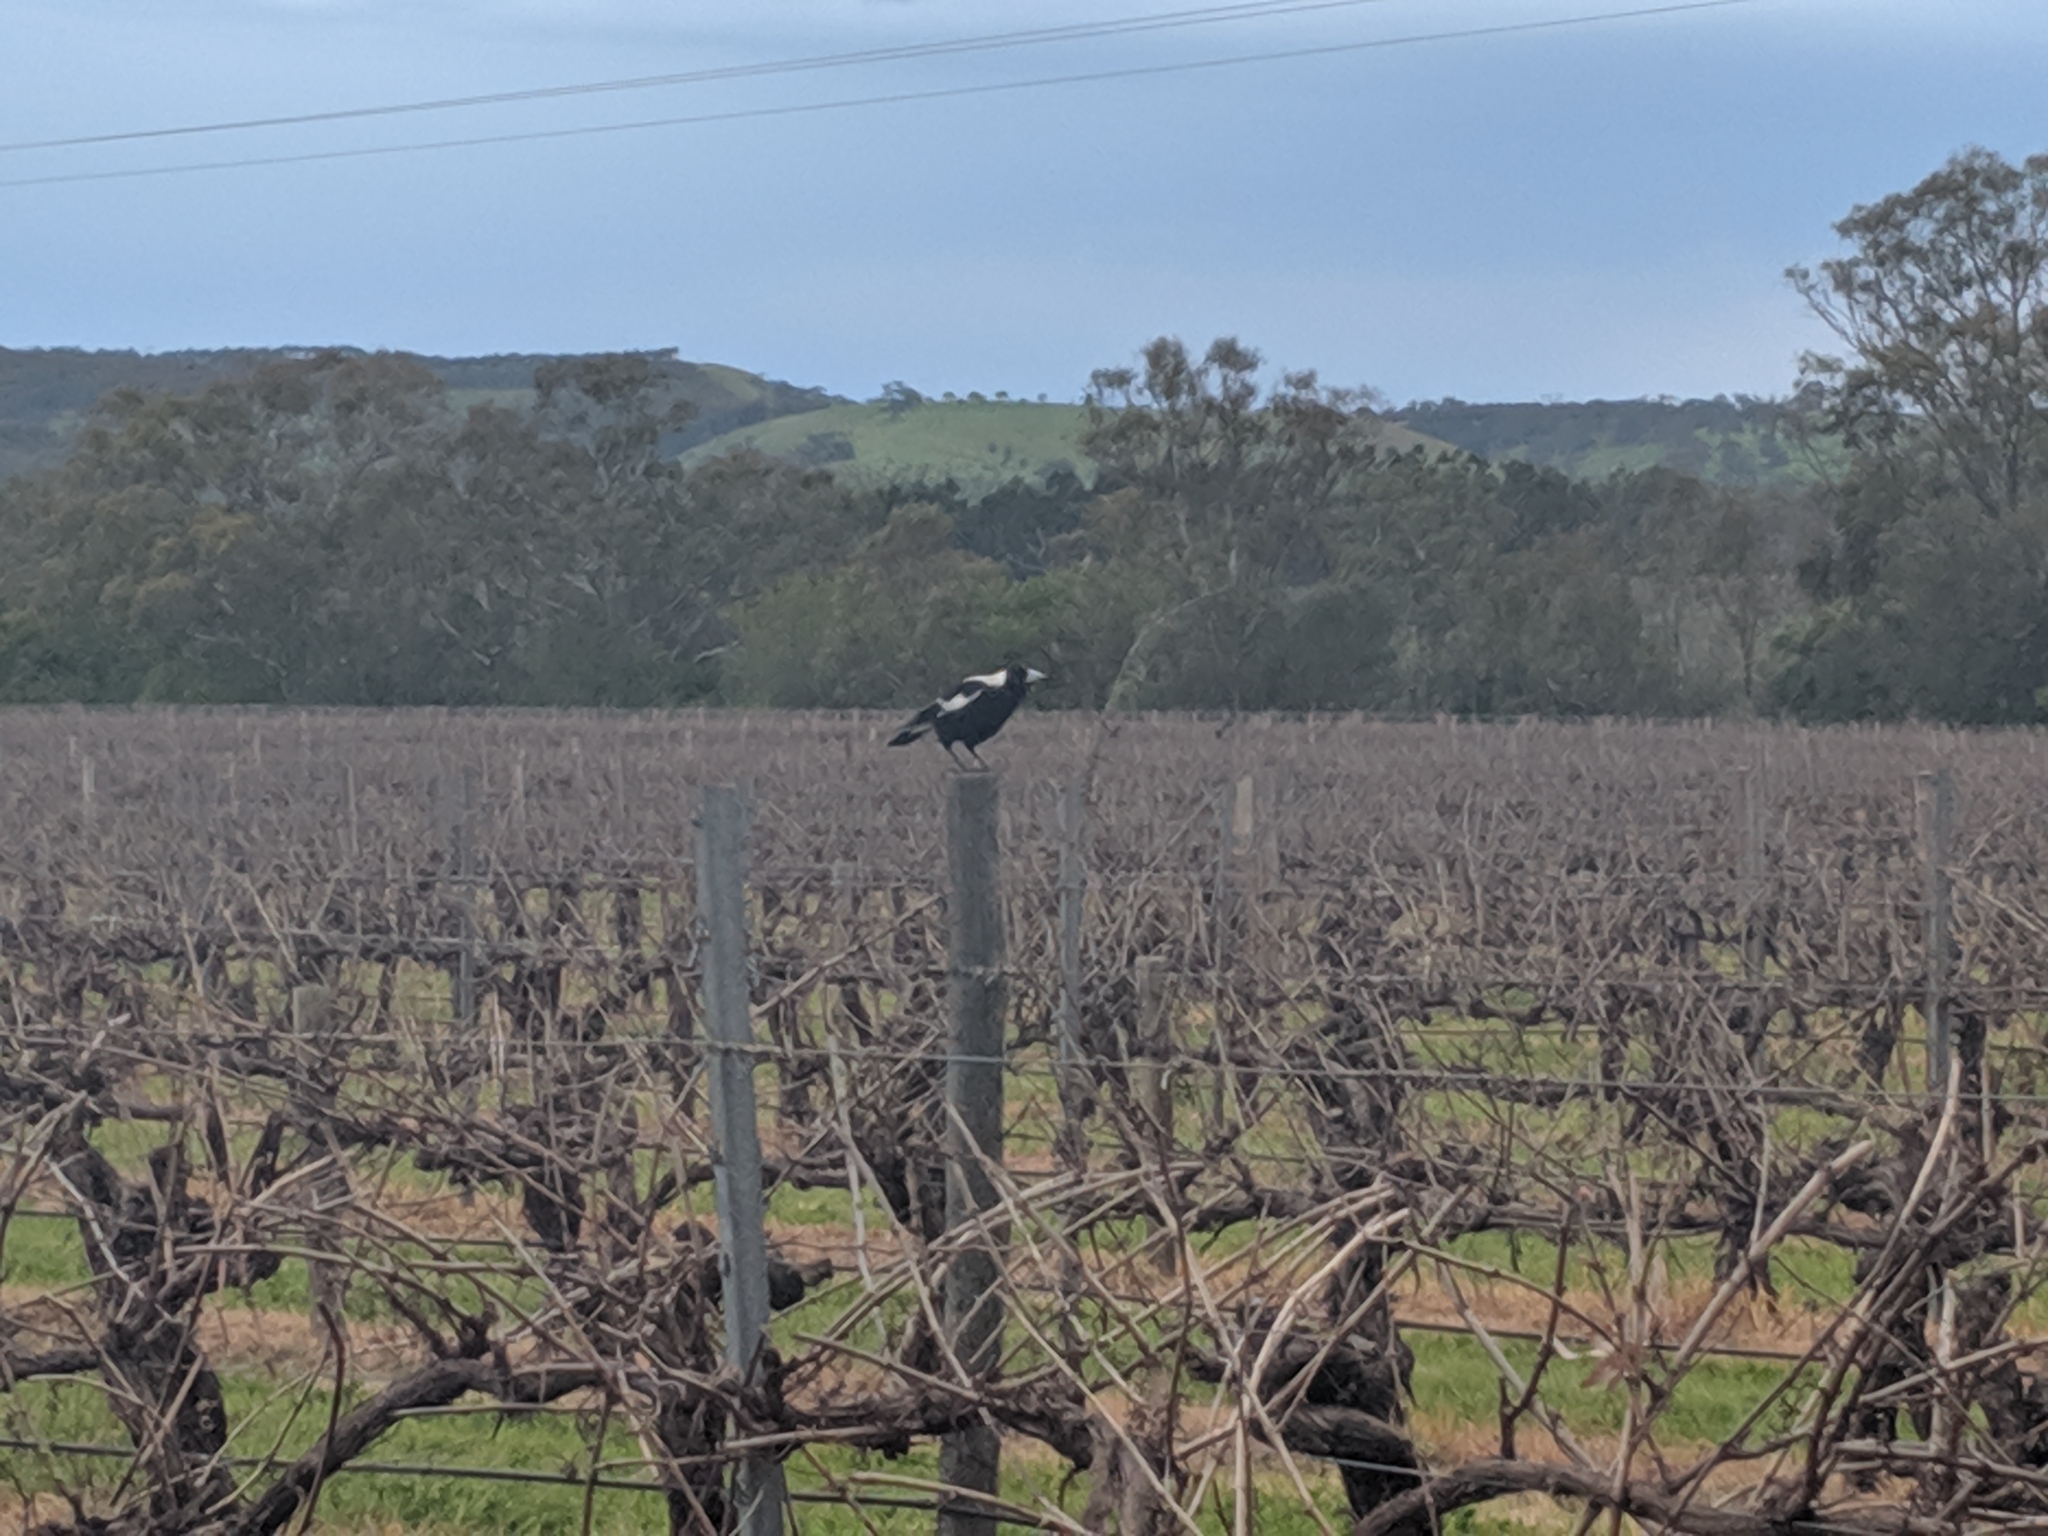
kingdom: Animalia
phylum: Chordata
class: Aves
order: Passeriformes
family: Cracticidae
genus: Gymnorhina
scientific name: Gymnorhina tibicen
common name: Australian magpie
